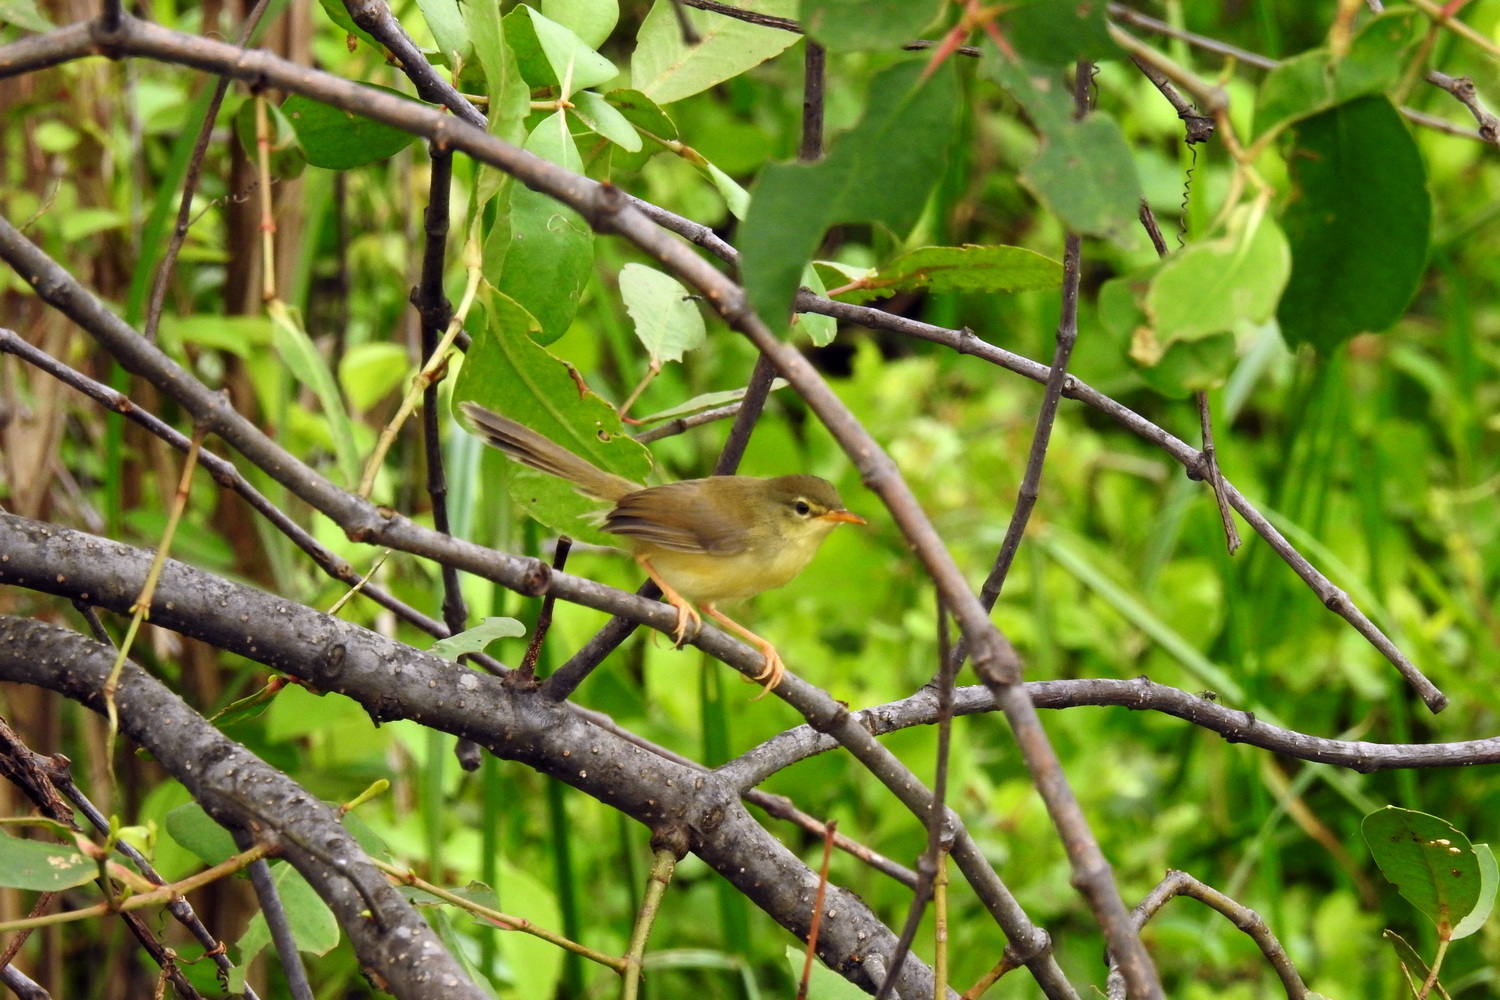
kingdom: Animalia
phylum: Chordata
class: Aves
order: Passeriformes
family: Cisticolidae
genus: Prinia
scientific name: Prinia inornata
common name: Plain prinia
